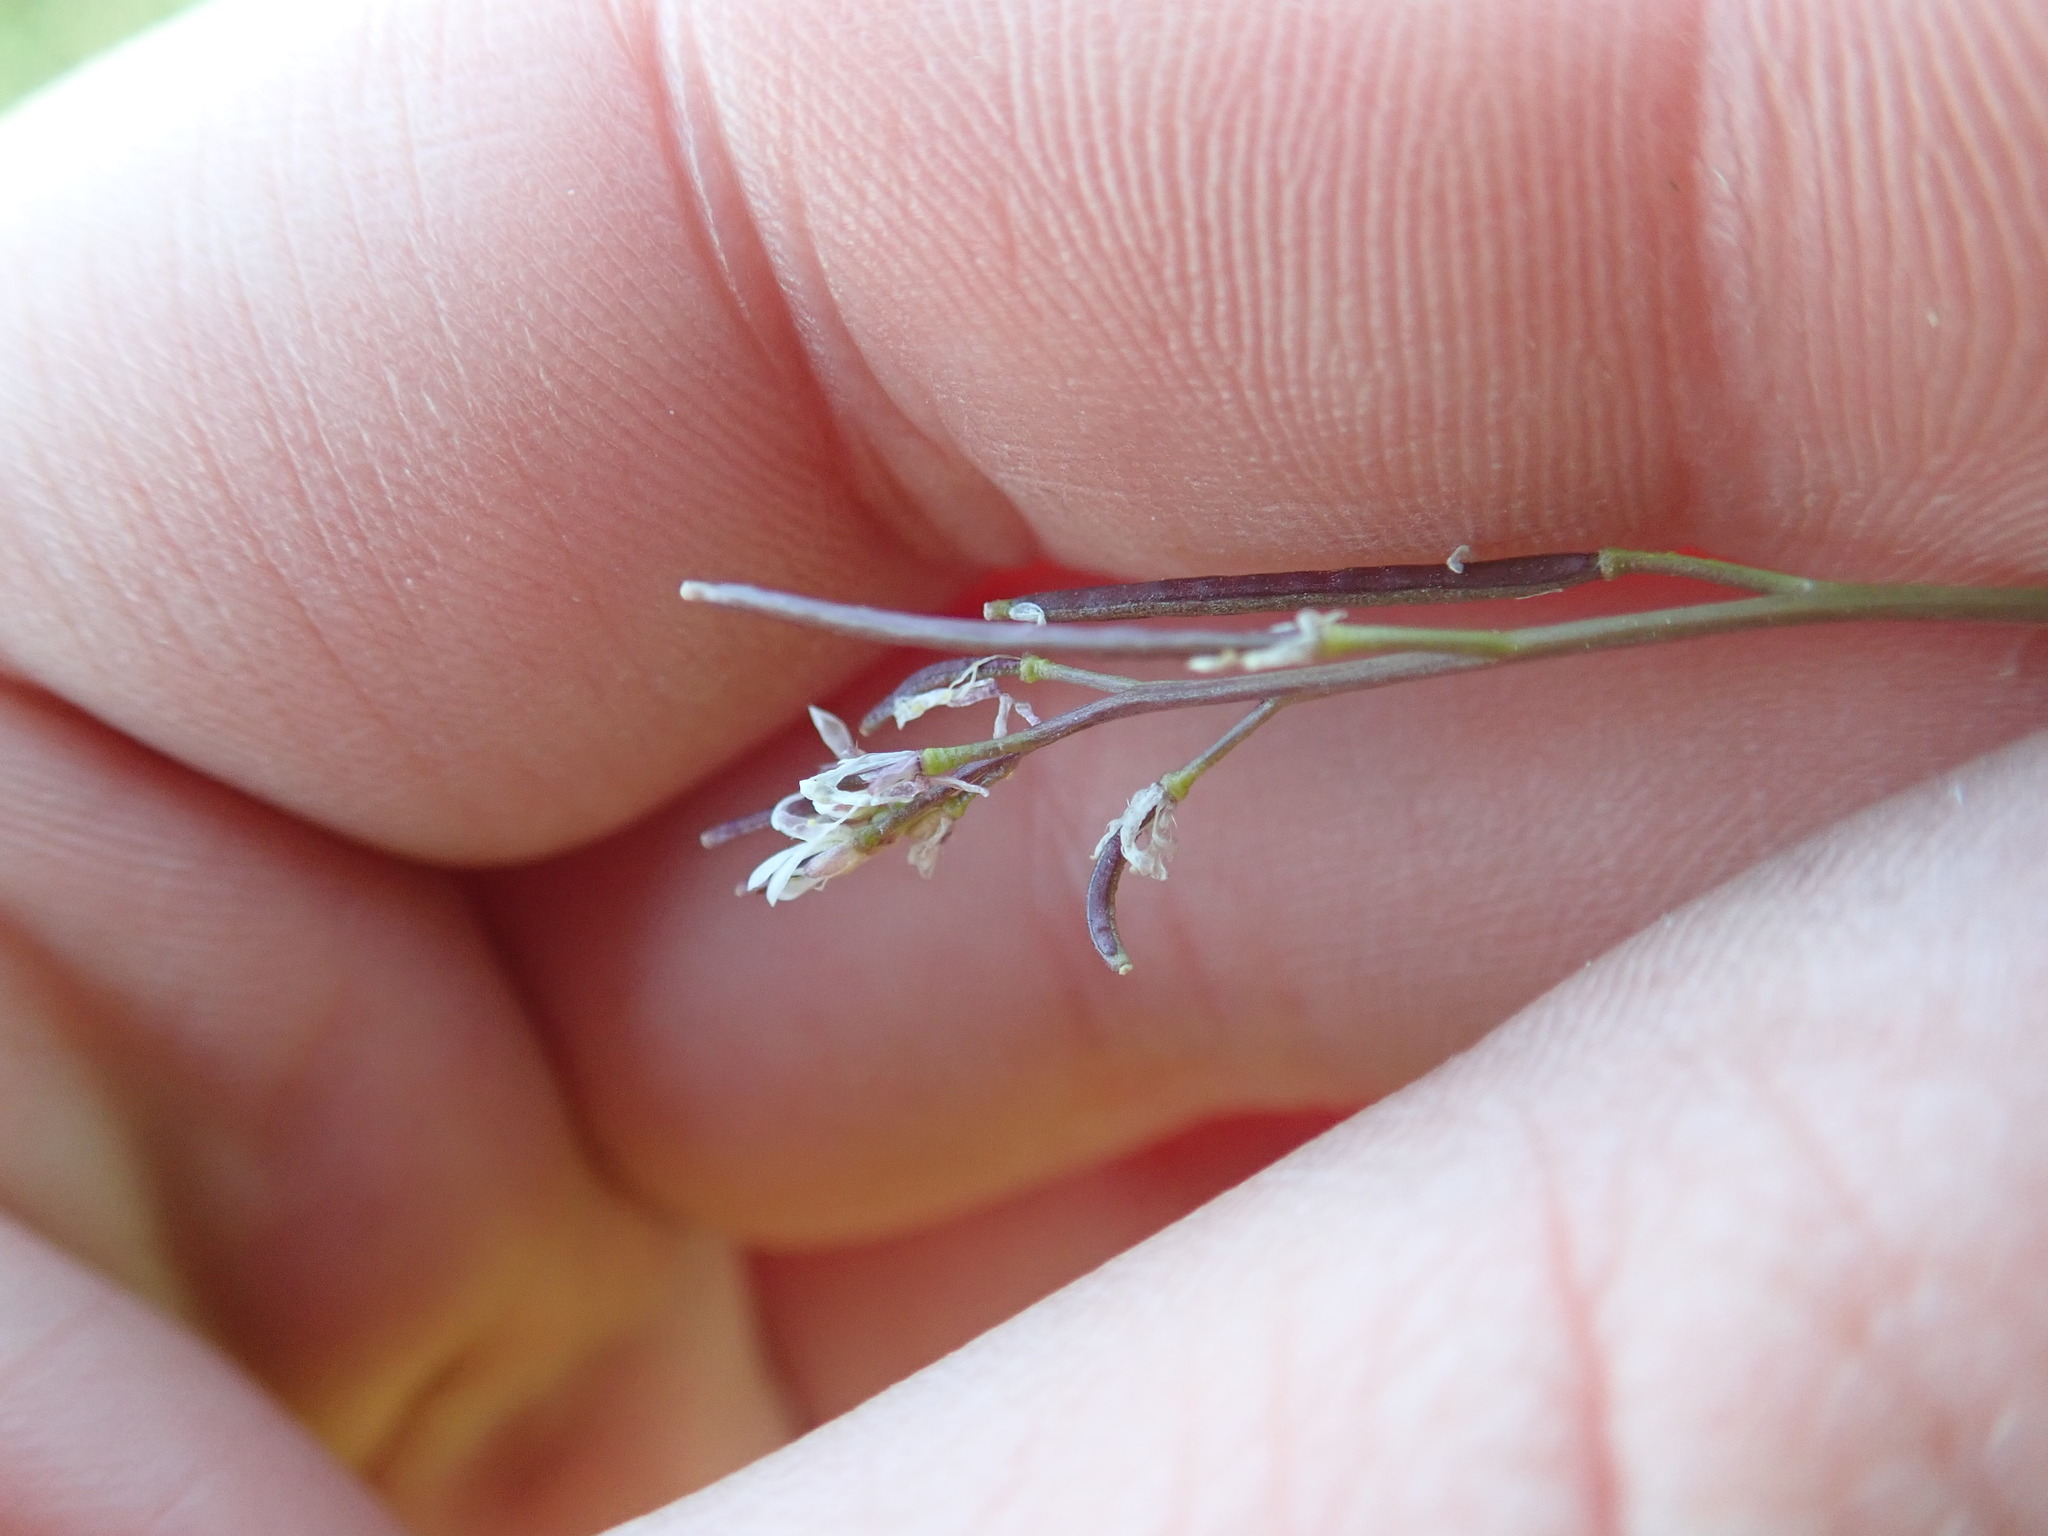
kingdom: Plantae
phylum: Tracheophyta
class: Magnoliopsida
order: Brassicales
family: Brassicaceae
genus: Cardamine
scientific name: Cardamine hirsuta
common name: Hairy bittercress
